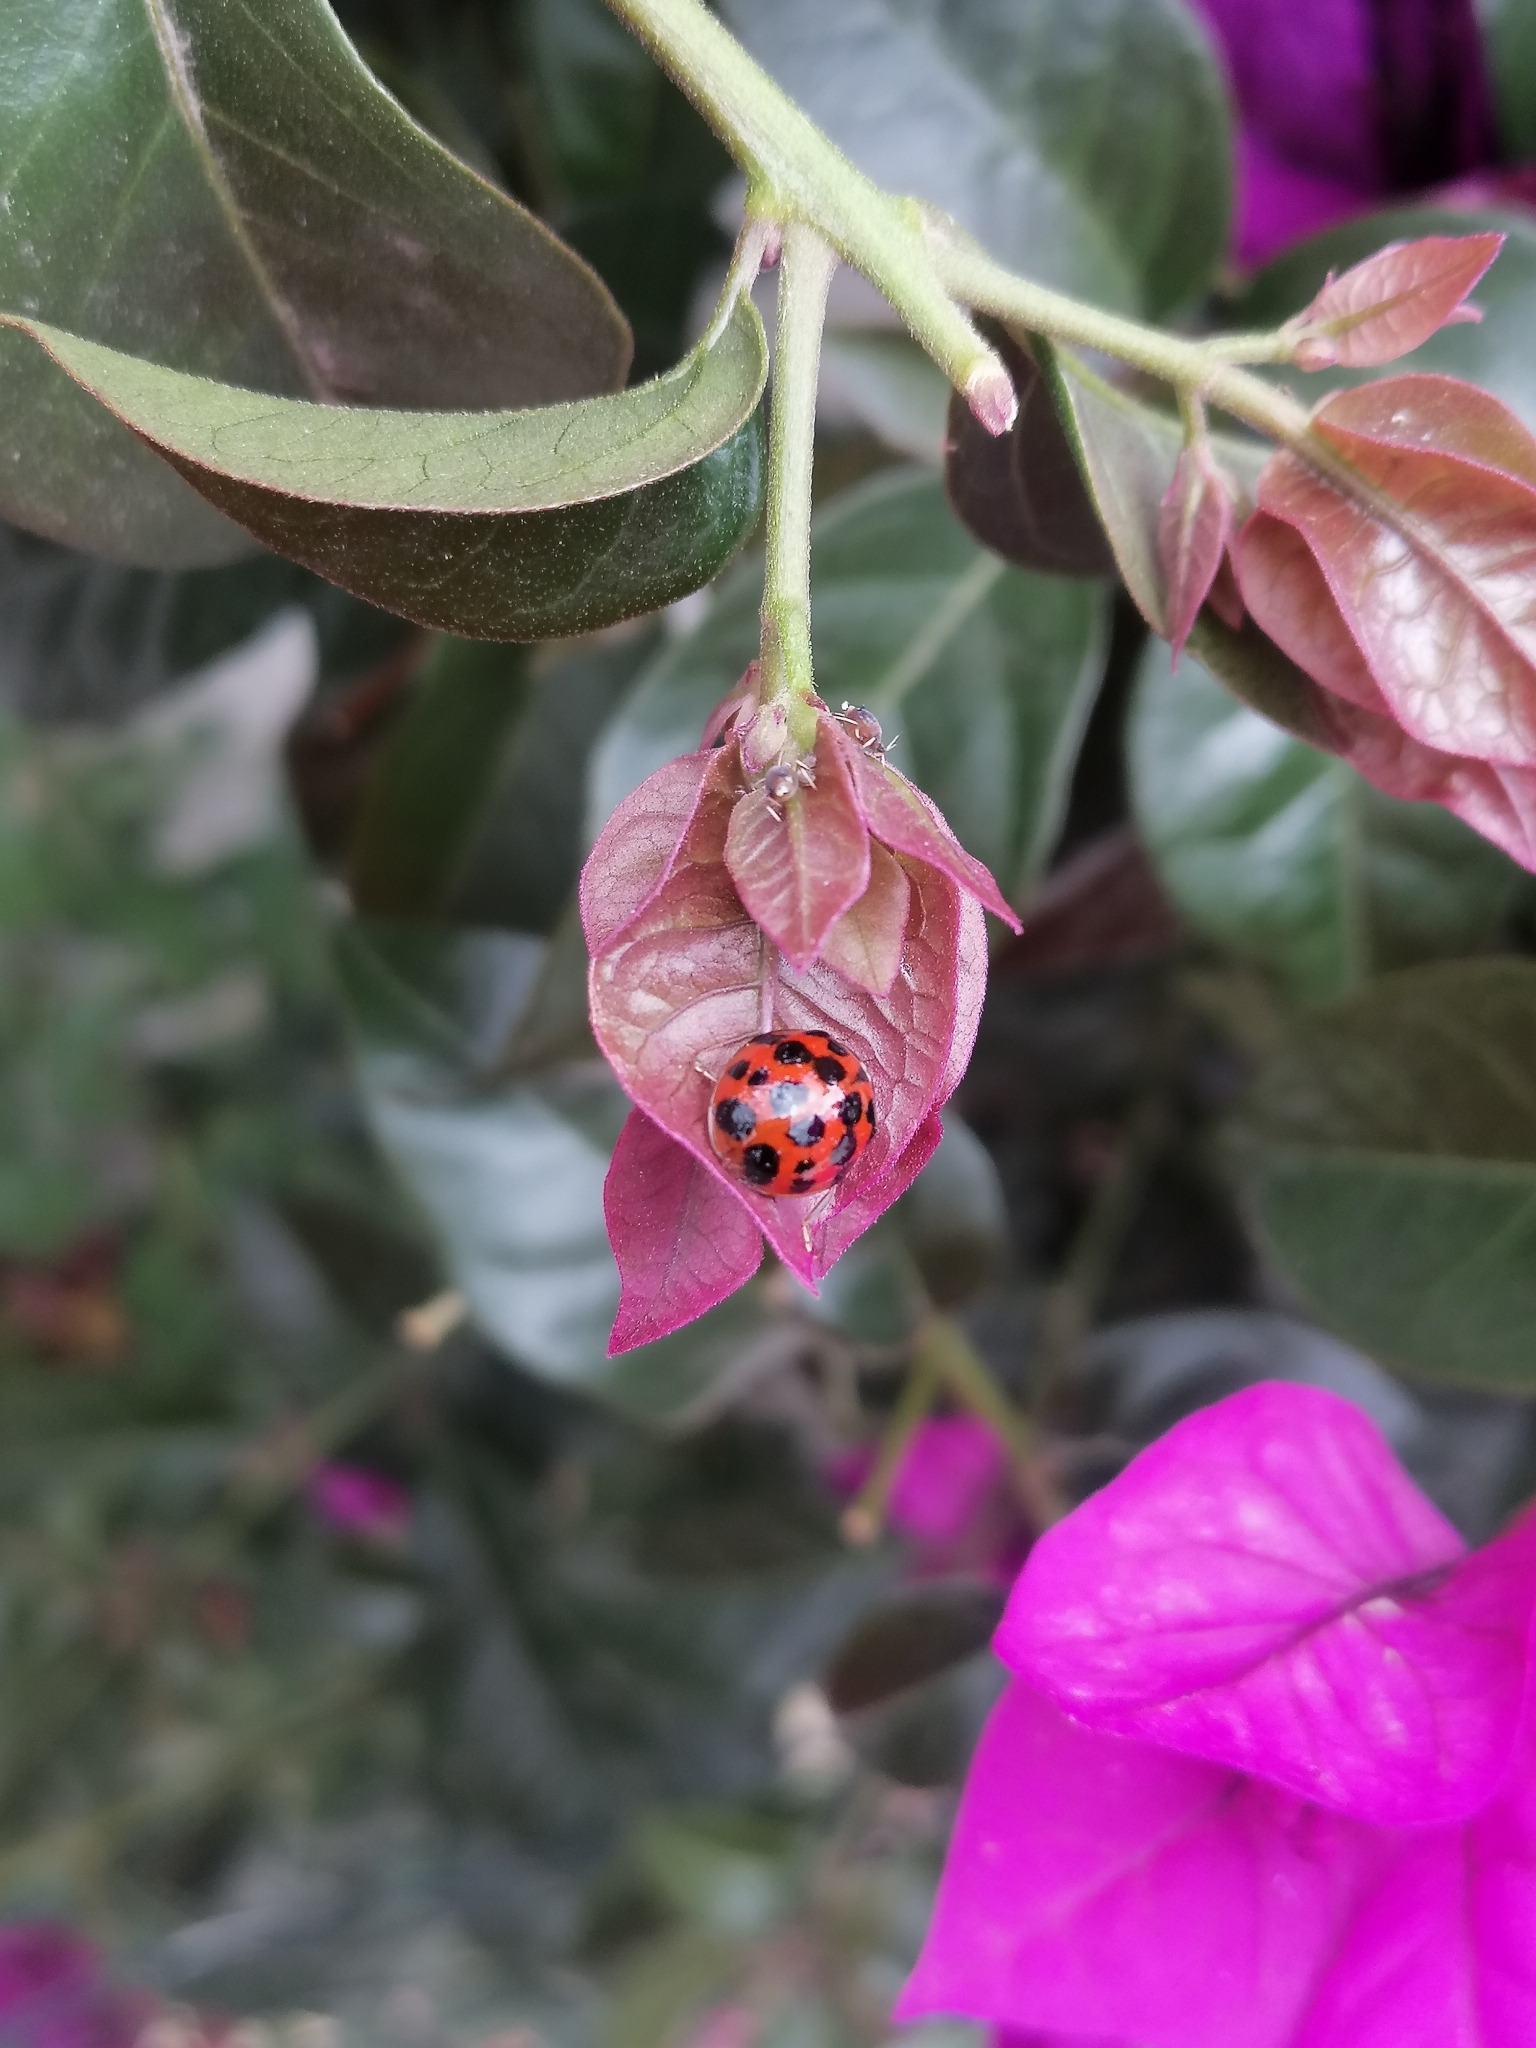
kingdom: Animalia
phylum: Arthropoda
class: Insecta
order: Coleoptera
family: Coccinellidae
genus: Harmonia
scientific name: Harmonia axyridis
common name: Harlequin ladybird
